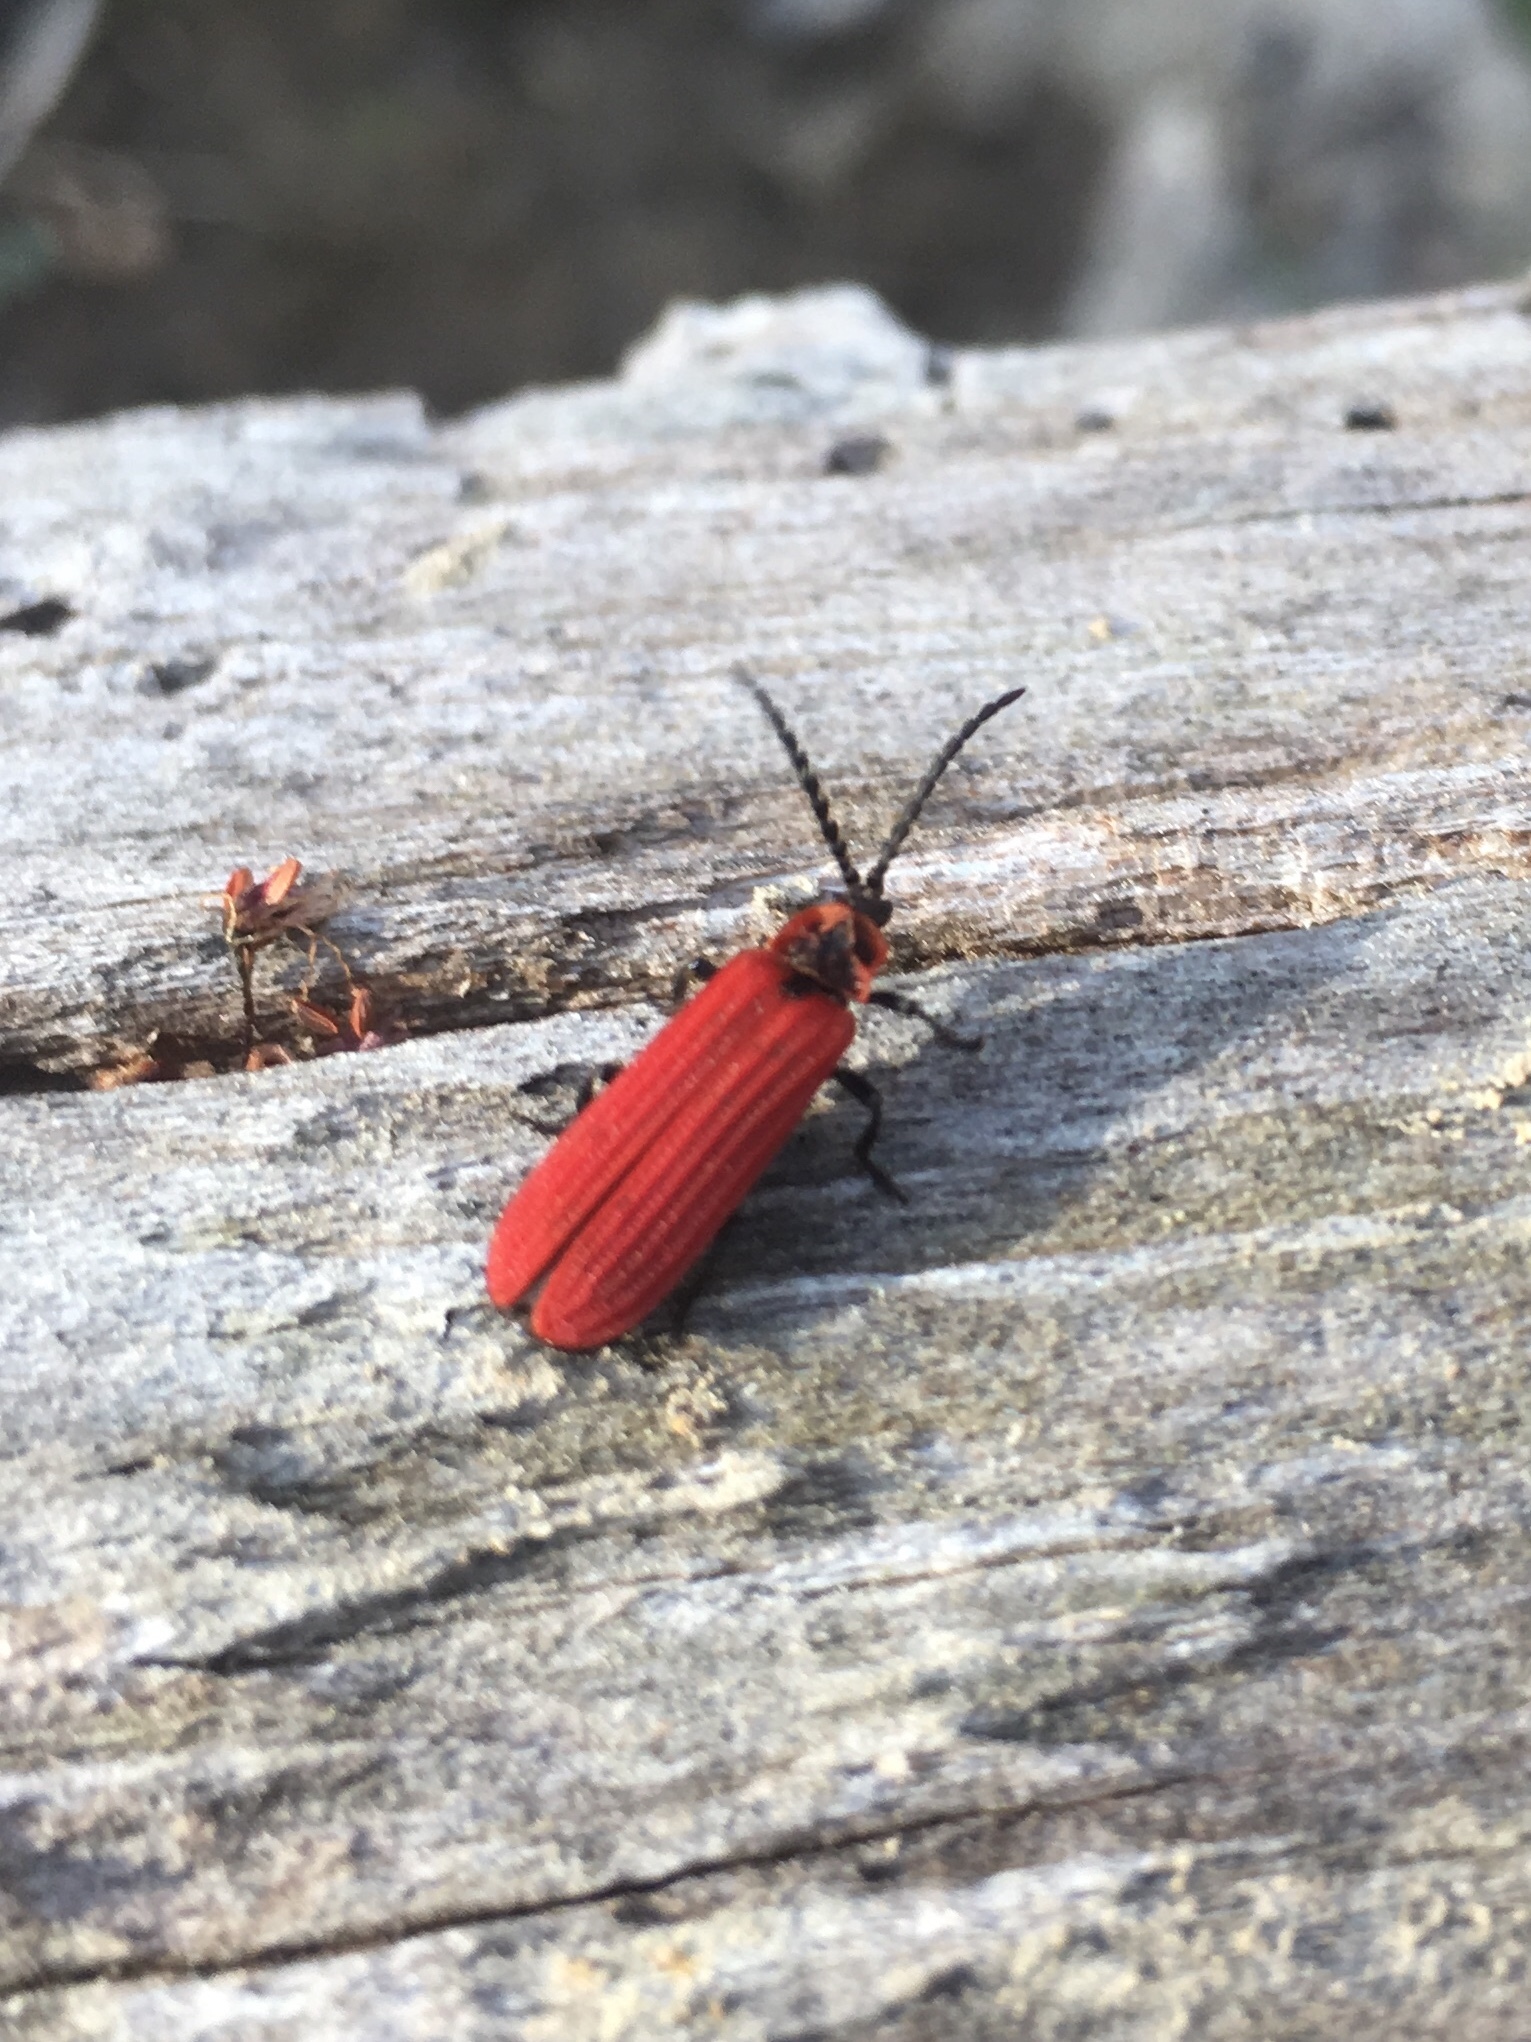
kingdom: Animalia
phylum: Arthropoda
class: Insecta
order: Coleoptera
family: Lycidae
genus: Dictyoptera
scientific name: Dictyoptera aurora
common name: Golden net-winged beetle
